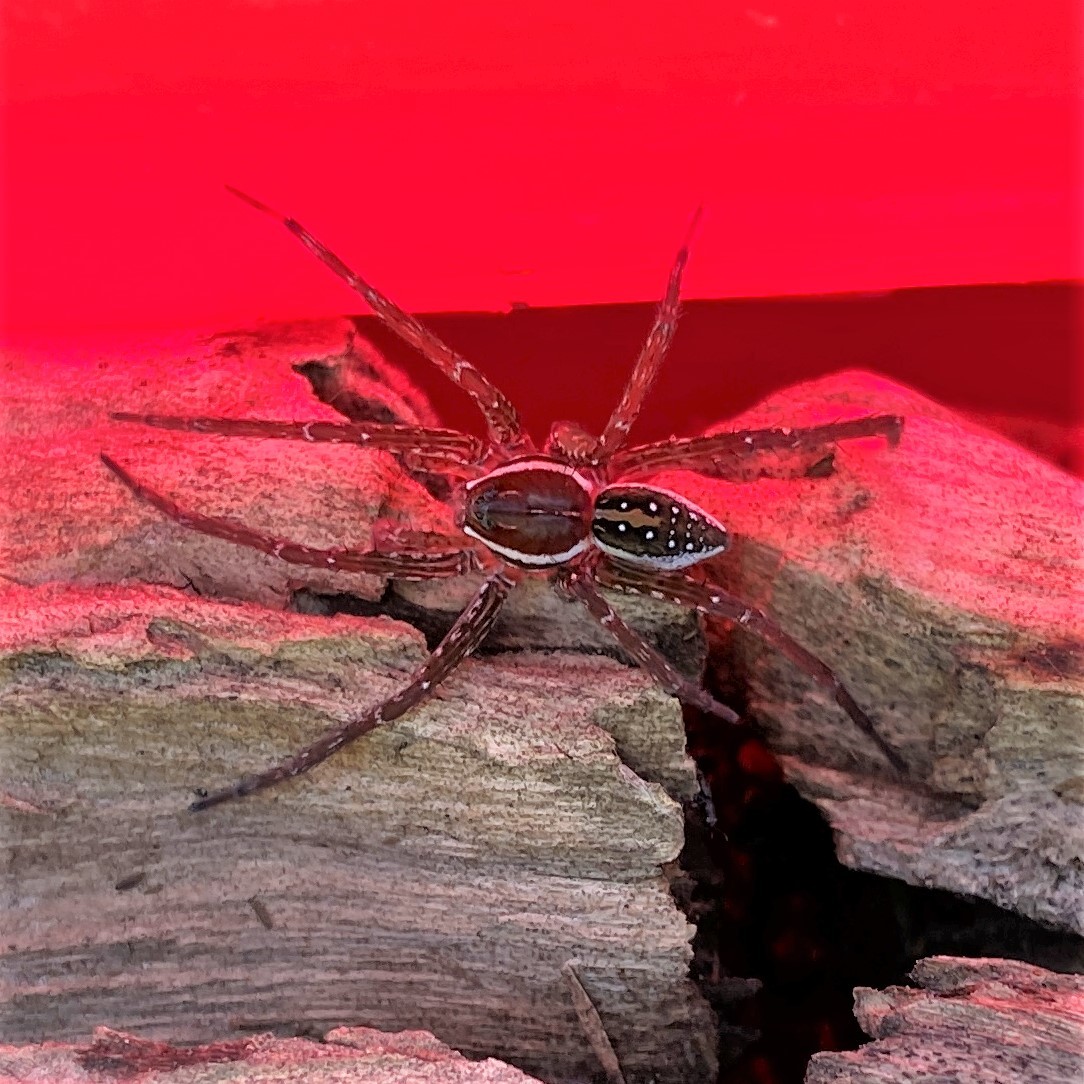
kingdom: Animalia
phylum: Arthropoda
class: Arachnida
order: Araneae
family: Pisauridae
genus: Dolomedes
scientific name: Dolomedes triton
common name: Six-spotted fishing spider
